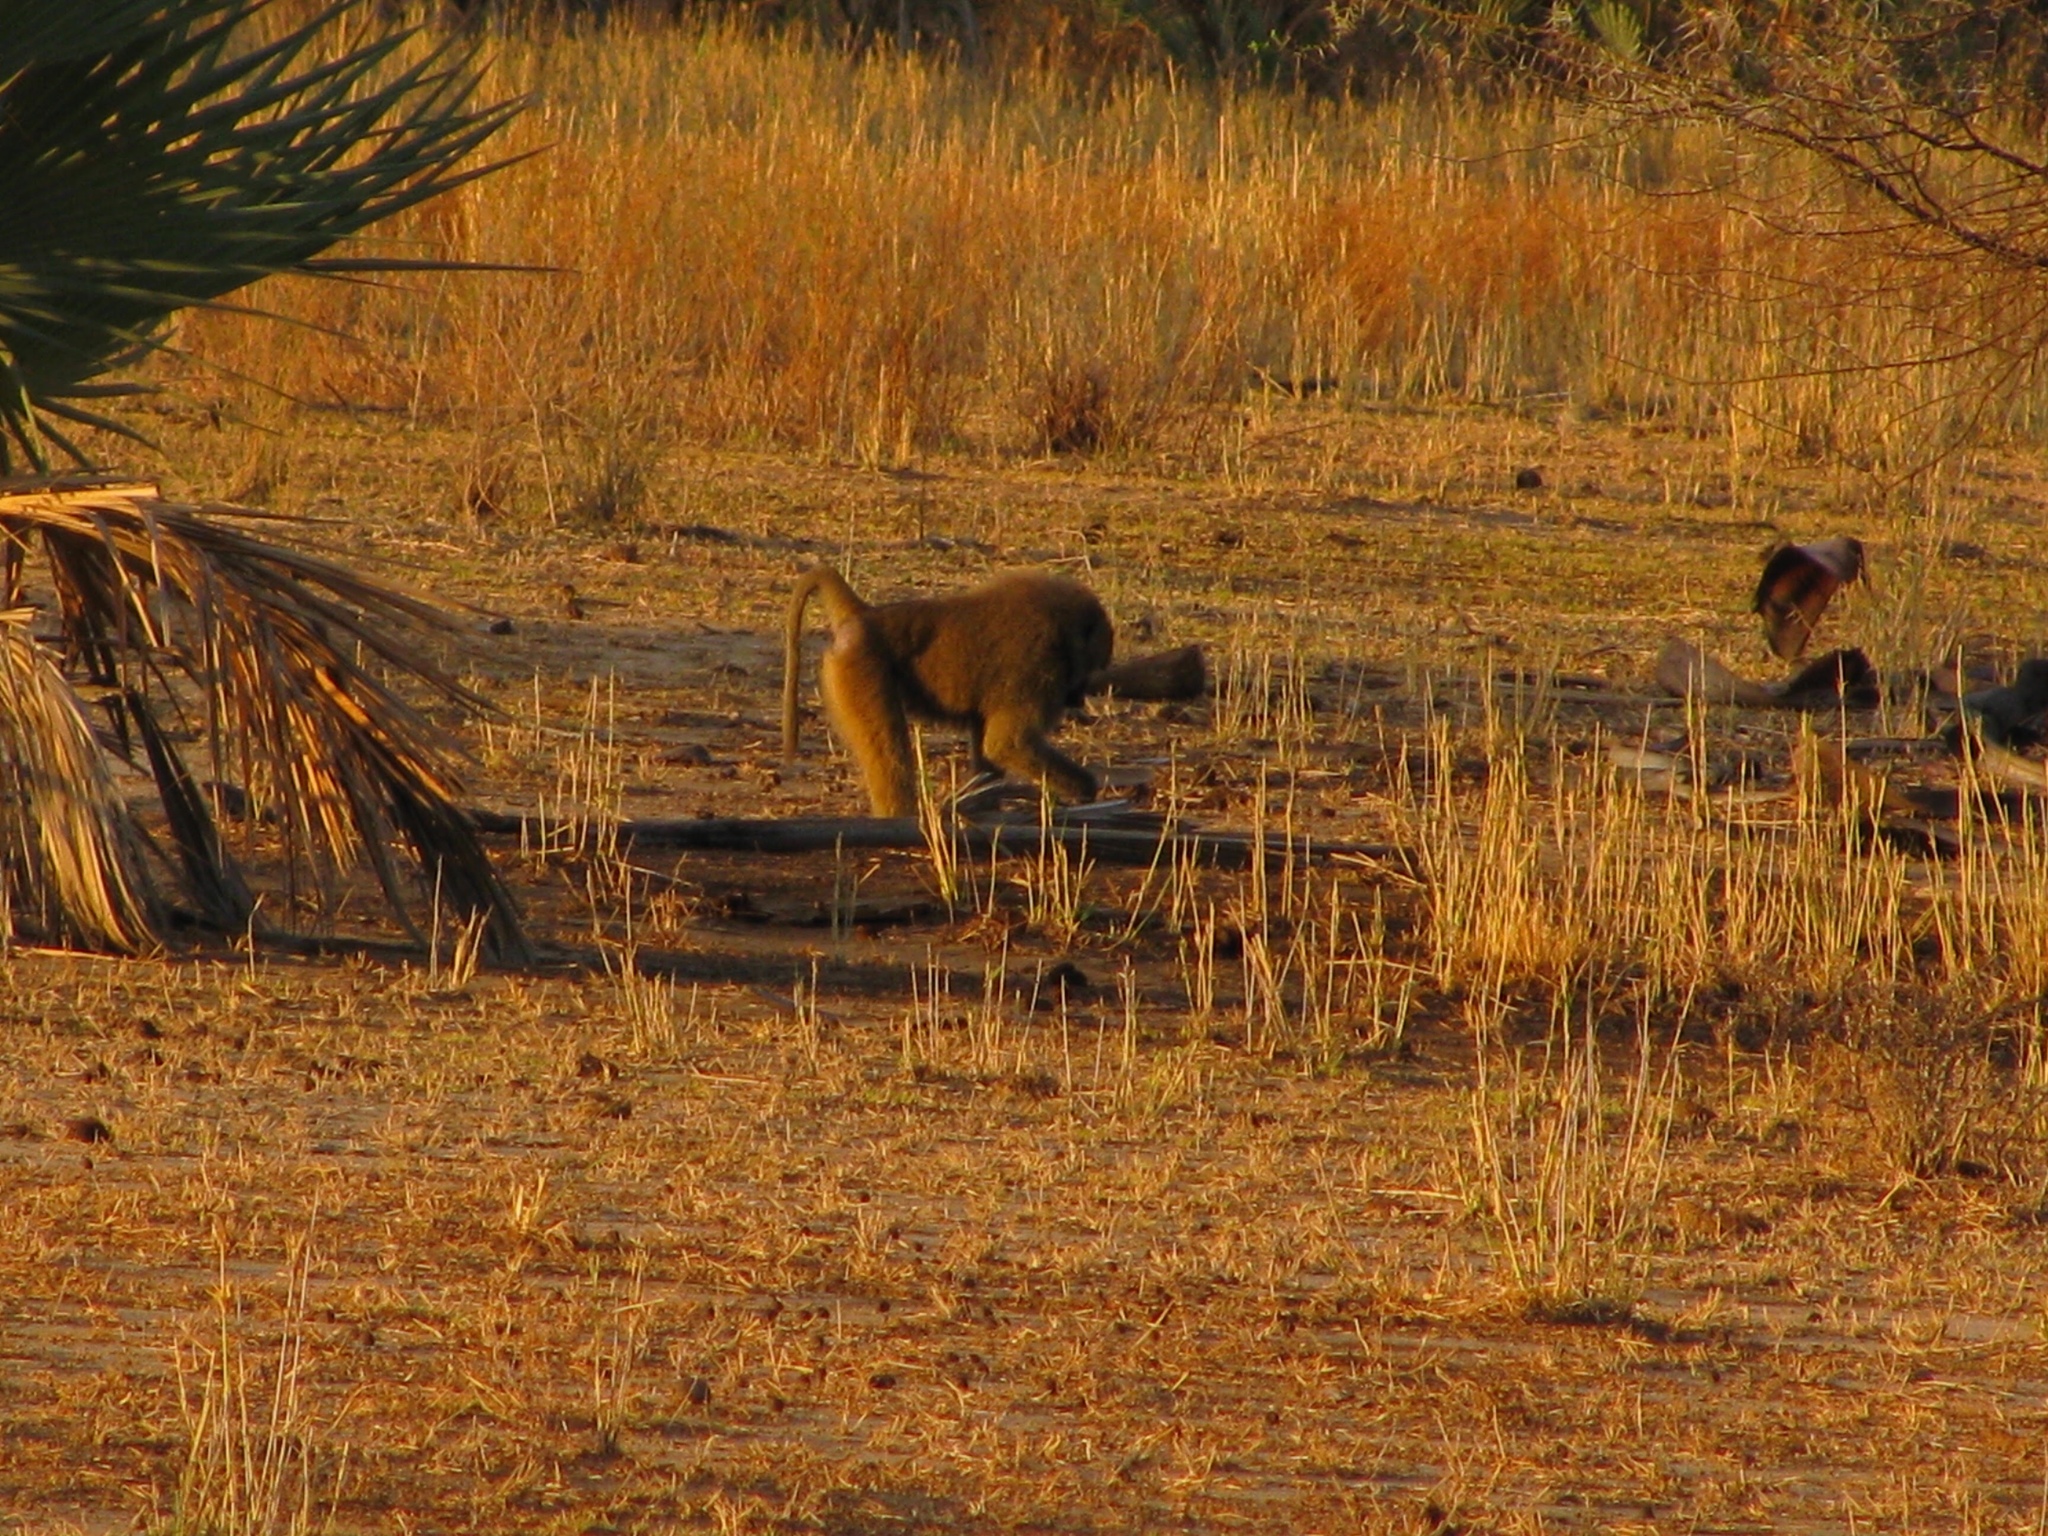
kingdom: Animalia
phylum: Chordata
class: Mammalia
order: Primates
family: Cercopithecidae
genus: Papio
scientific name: Papio anubis
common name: Olive baboon
